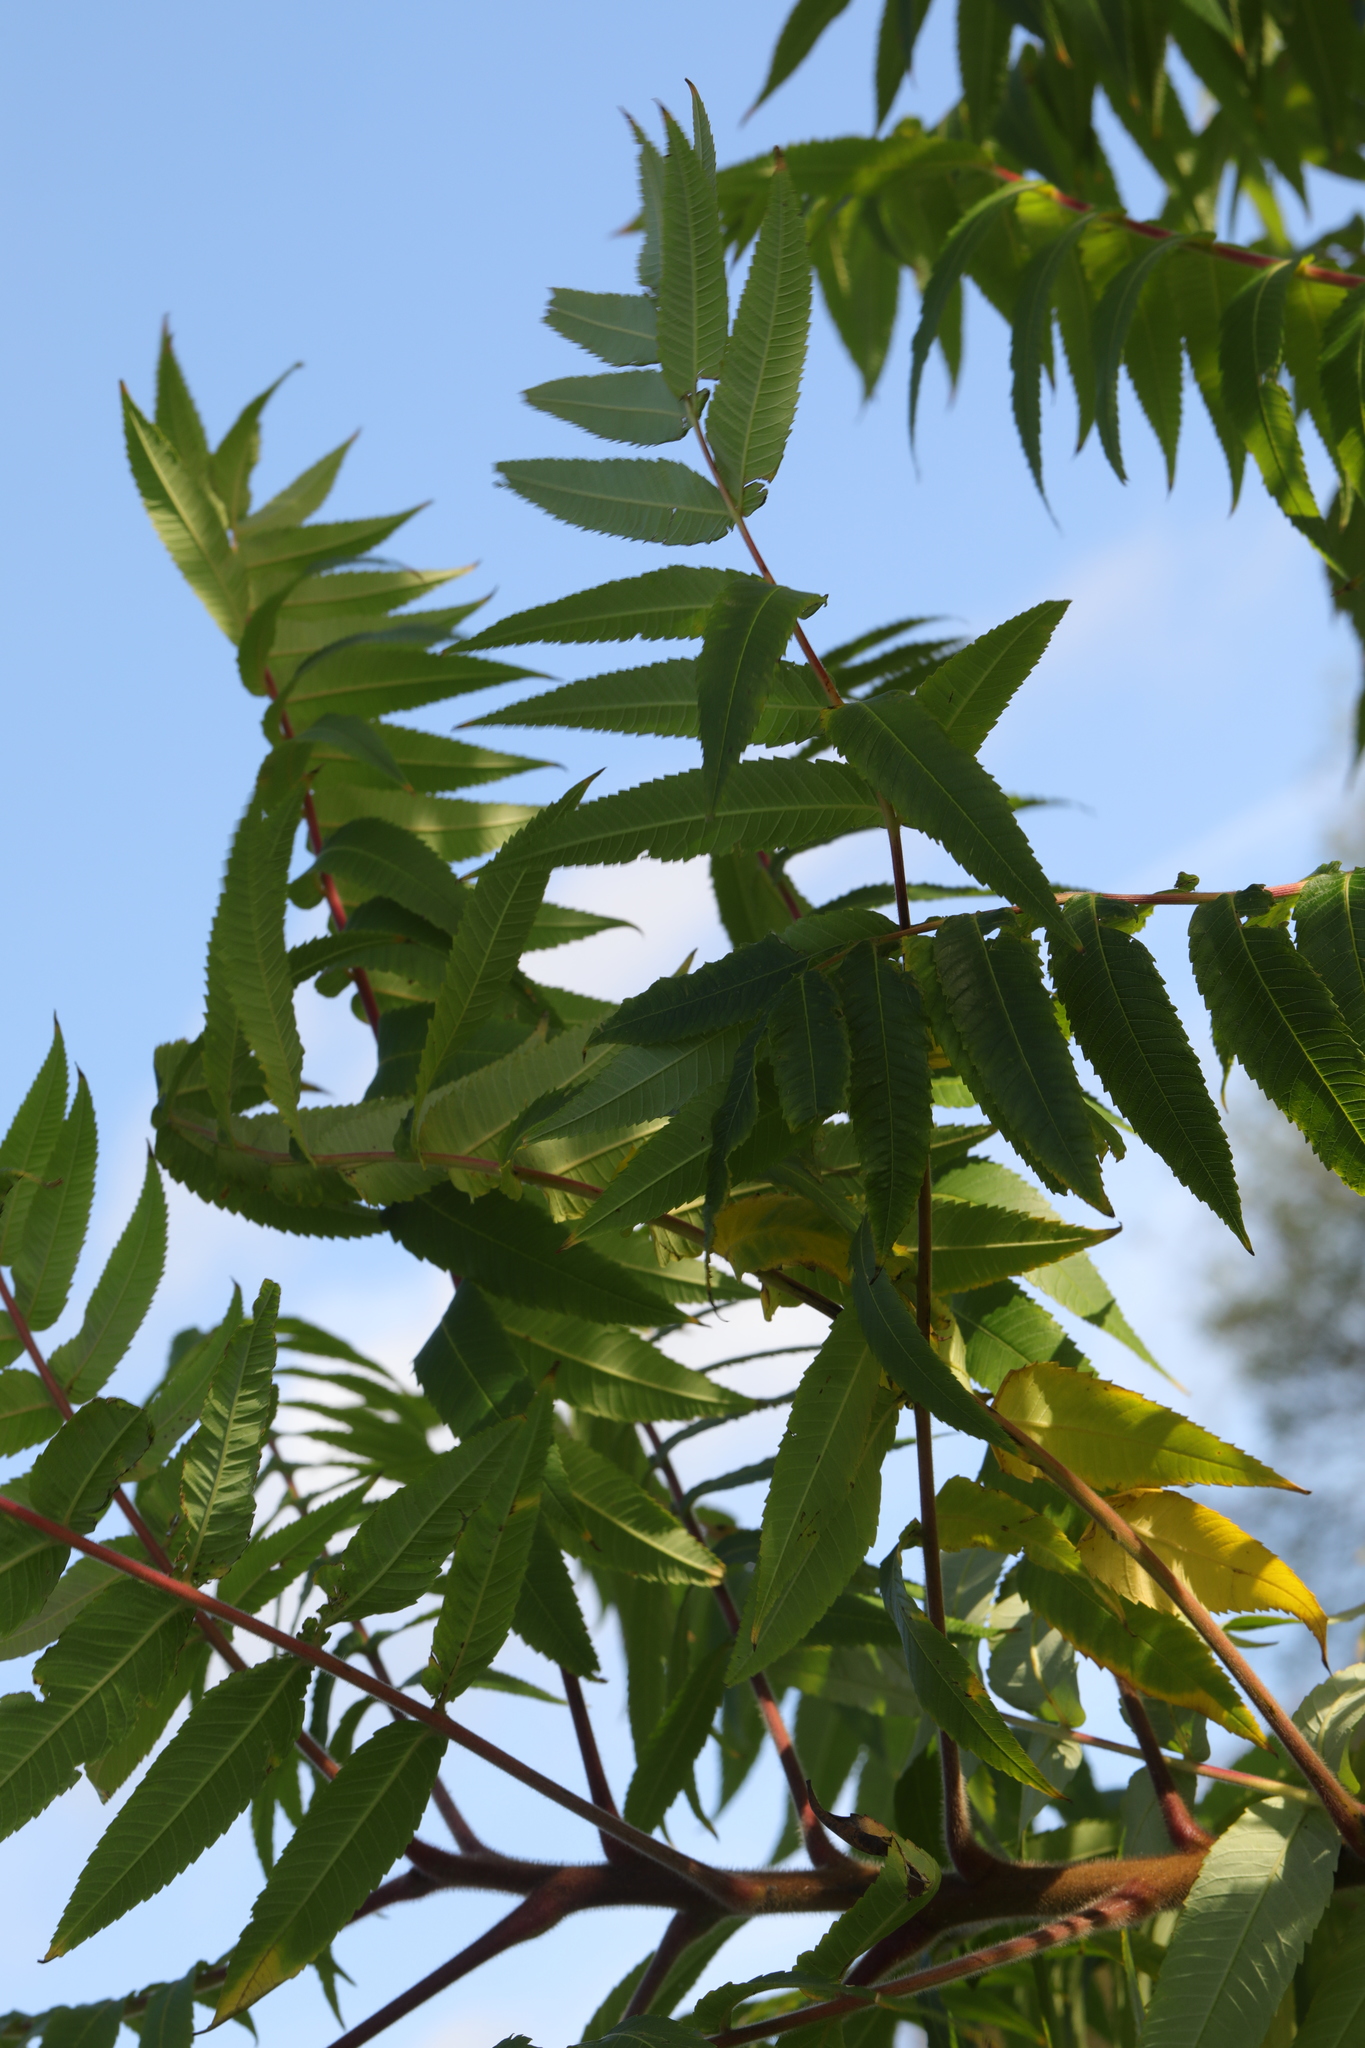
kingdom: Plantae
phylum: Tracheophyta
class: Magnoliopsida
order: Sapindales
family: Anacardiaceae
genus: Rhus
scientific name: Rhus typhina
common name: Staghorn sumac
